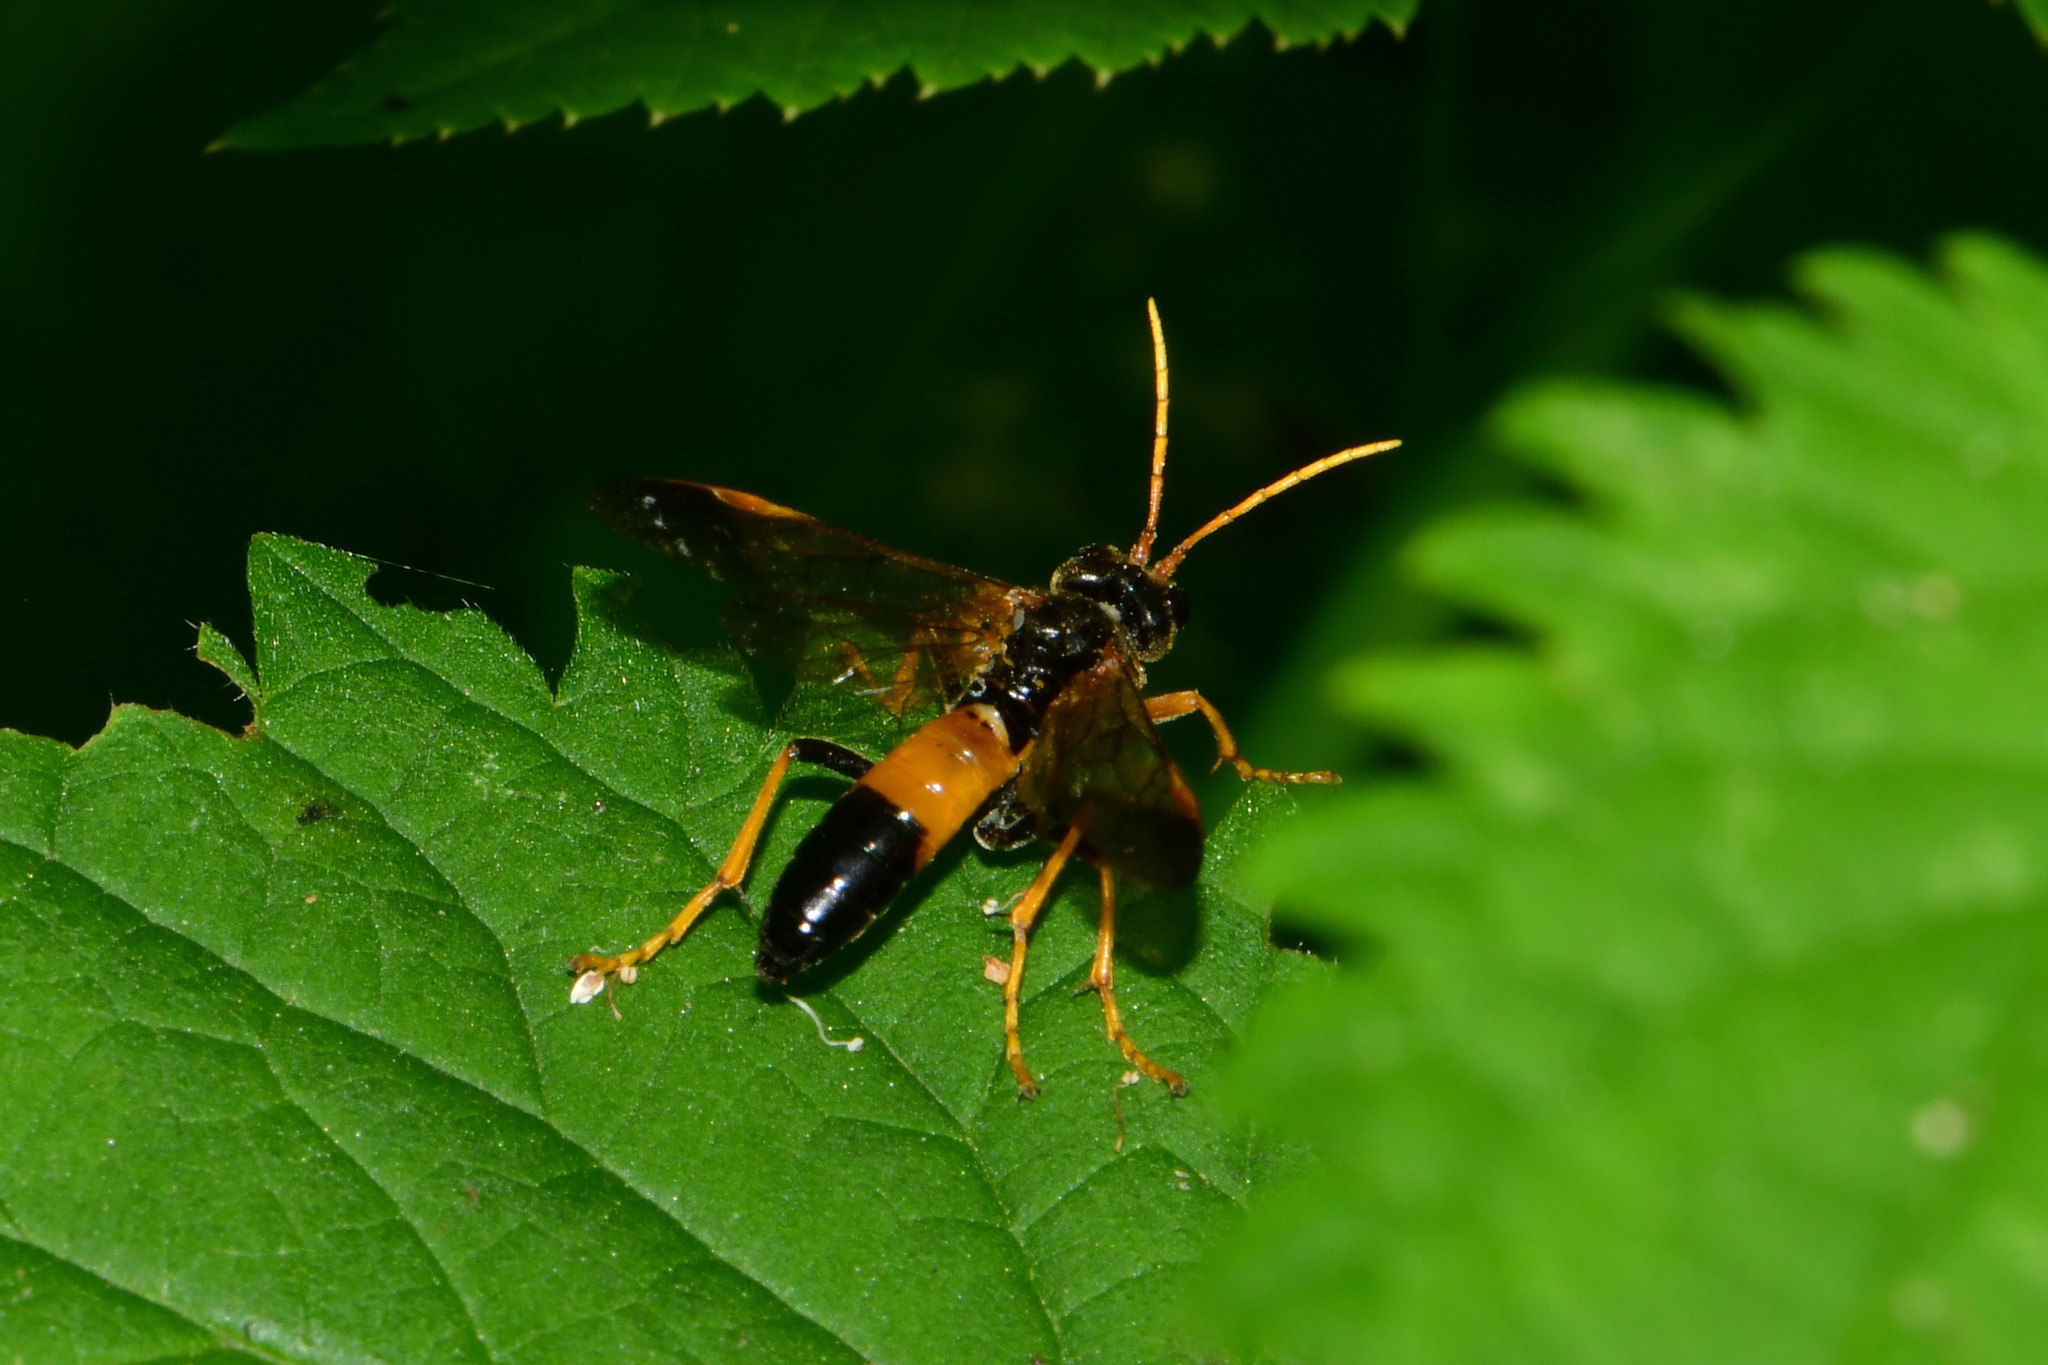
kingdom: Animalia
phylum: Arthropoda
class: Insecta
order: Hymenoptera
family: Tenthredinidae
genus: Tenthredo
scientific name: Tenthredo campestris
